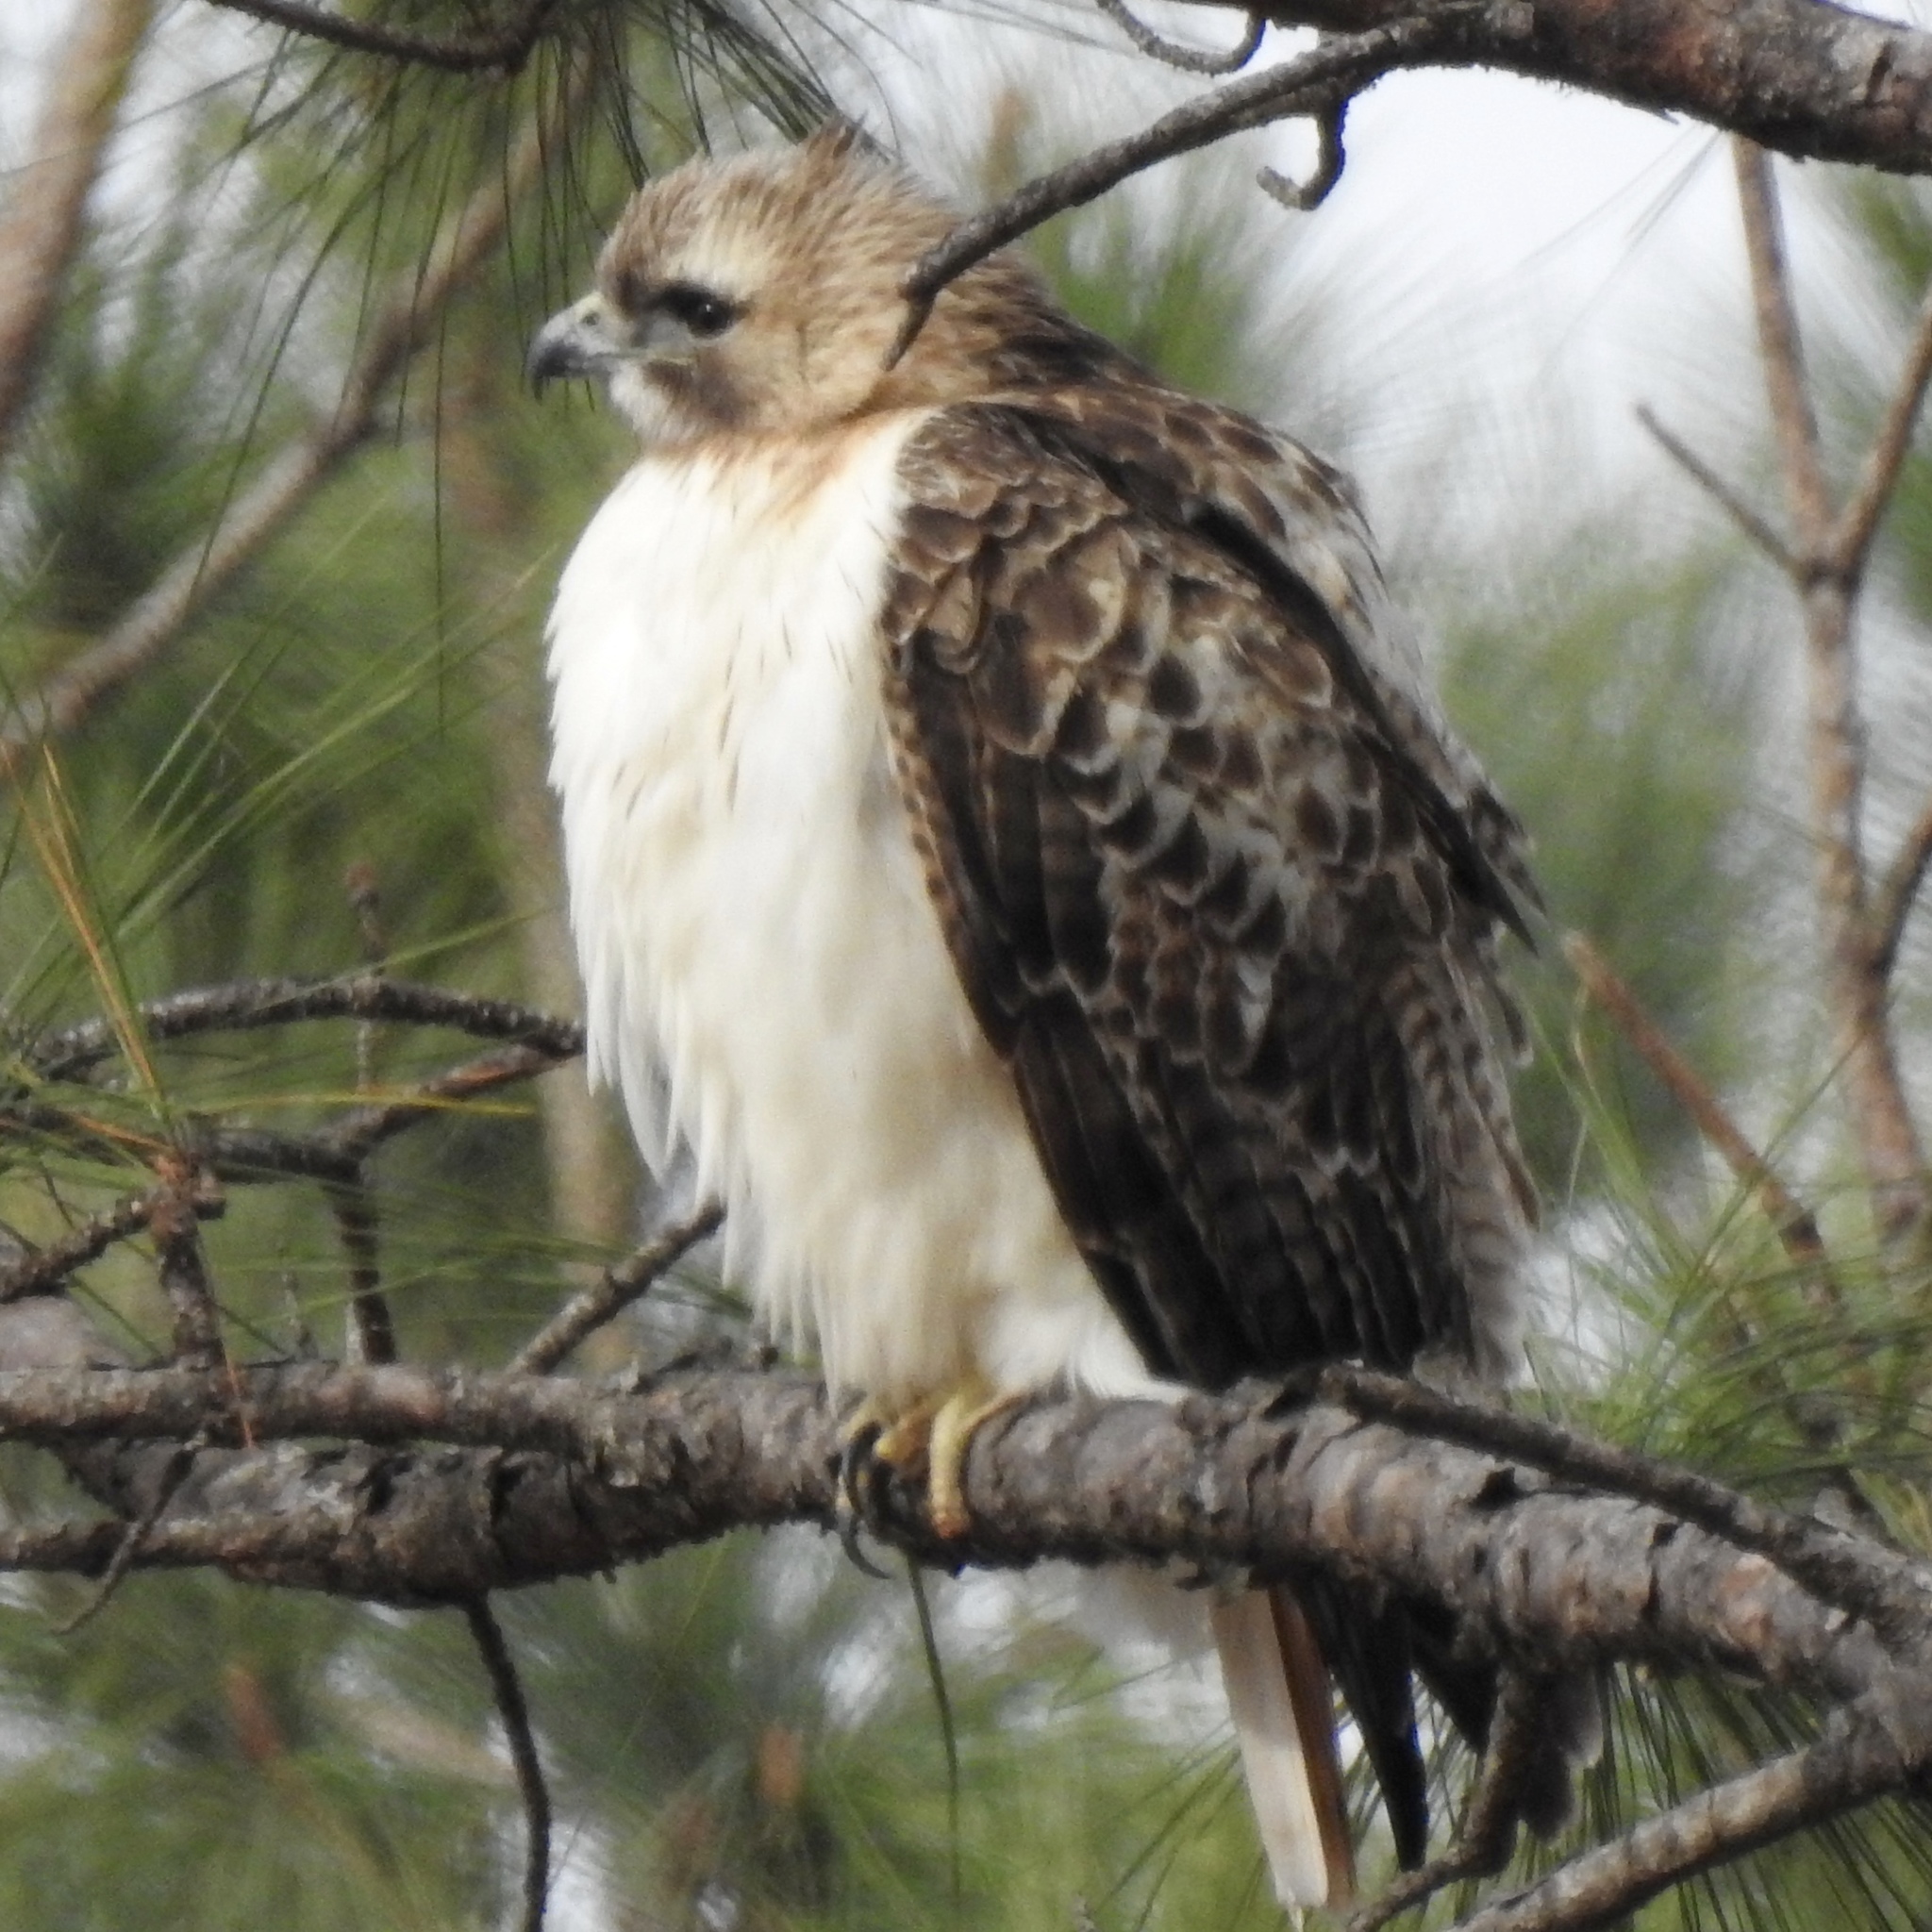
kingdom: Animalia
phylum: Chordata
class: Aves
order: Accipitriformes
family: Accipitridae
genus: Buteo
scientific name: Buteo jamaicensis
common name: Red-tailed hawk
